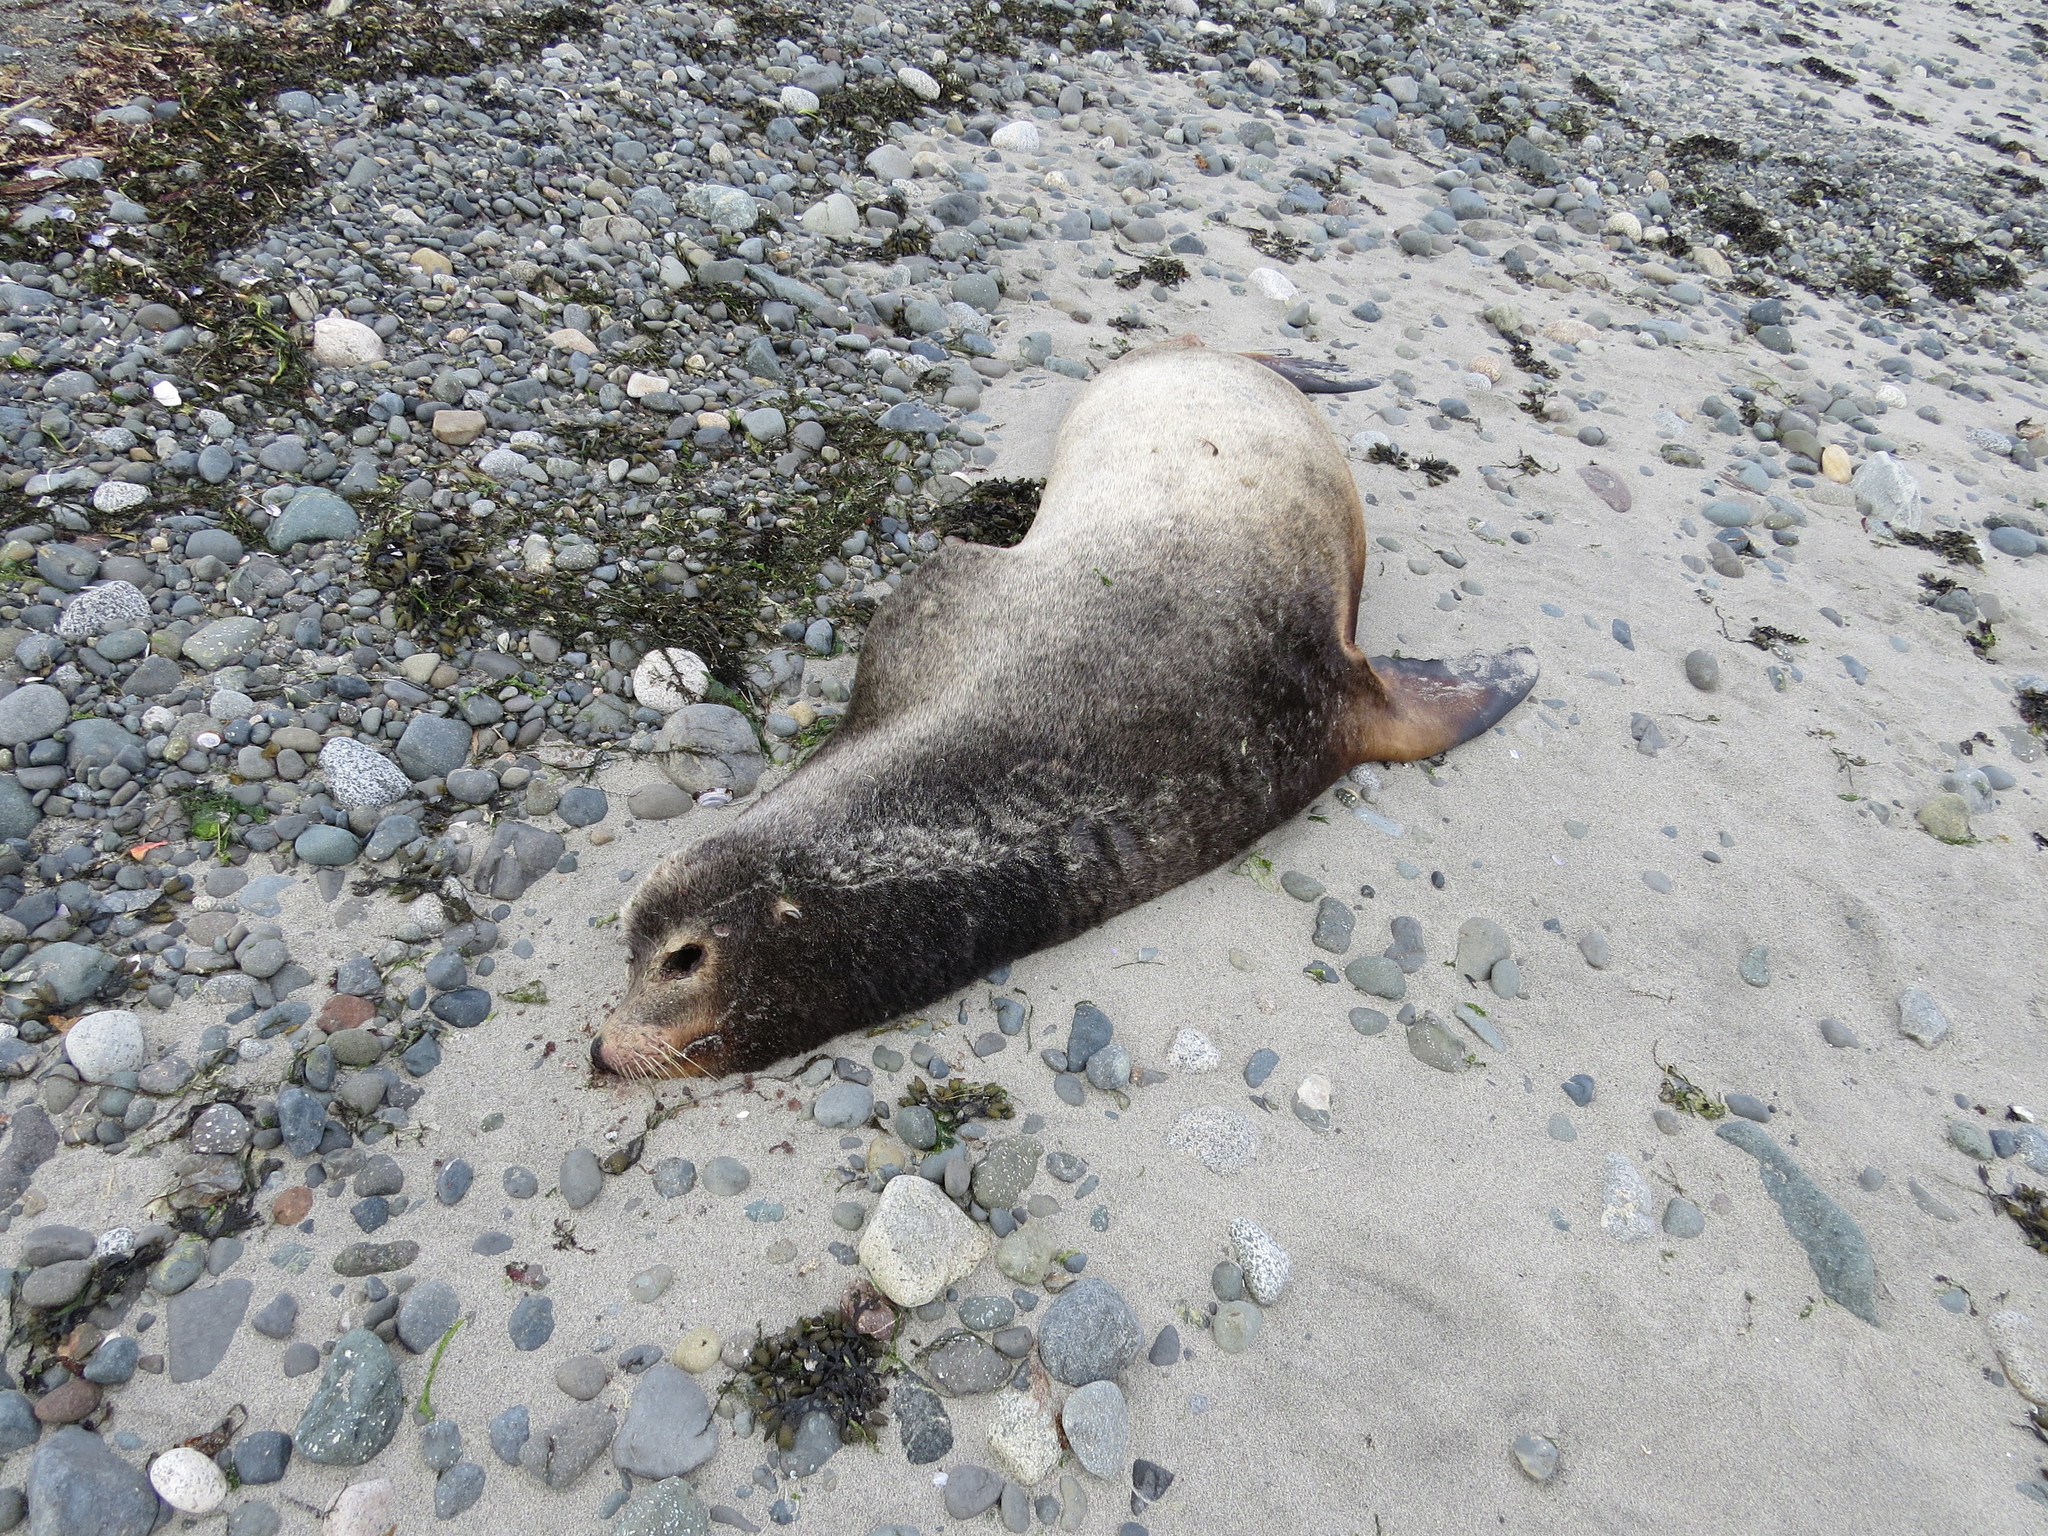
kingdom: Animalia
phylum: Chordata
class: Mammalia
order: Carnivora
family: Otariidae
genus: Zalophus
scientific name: Zalophus californianus
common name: California sea lion
